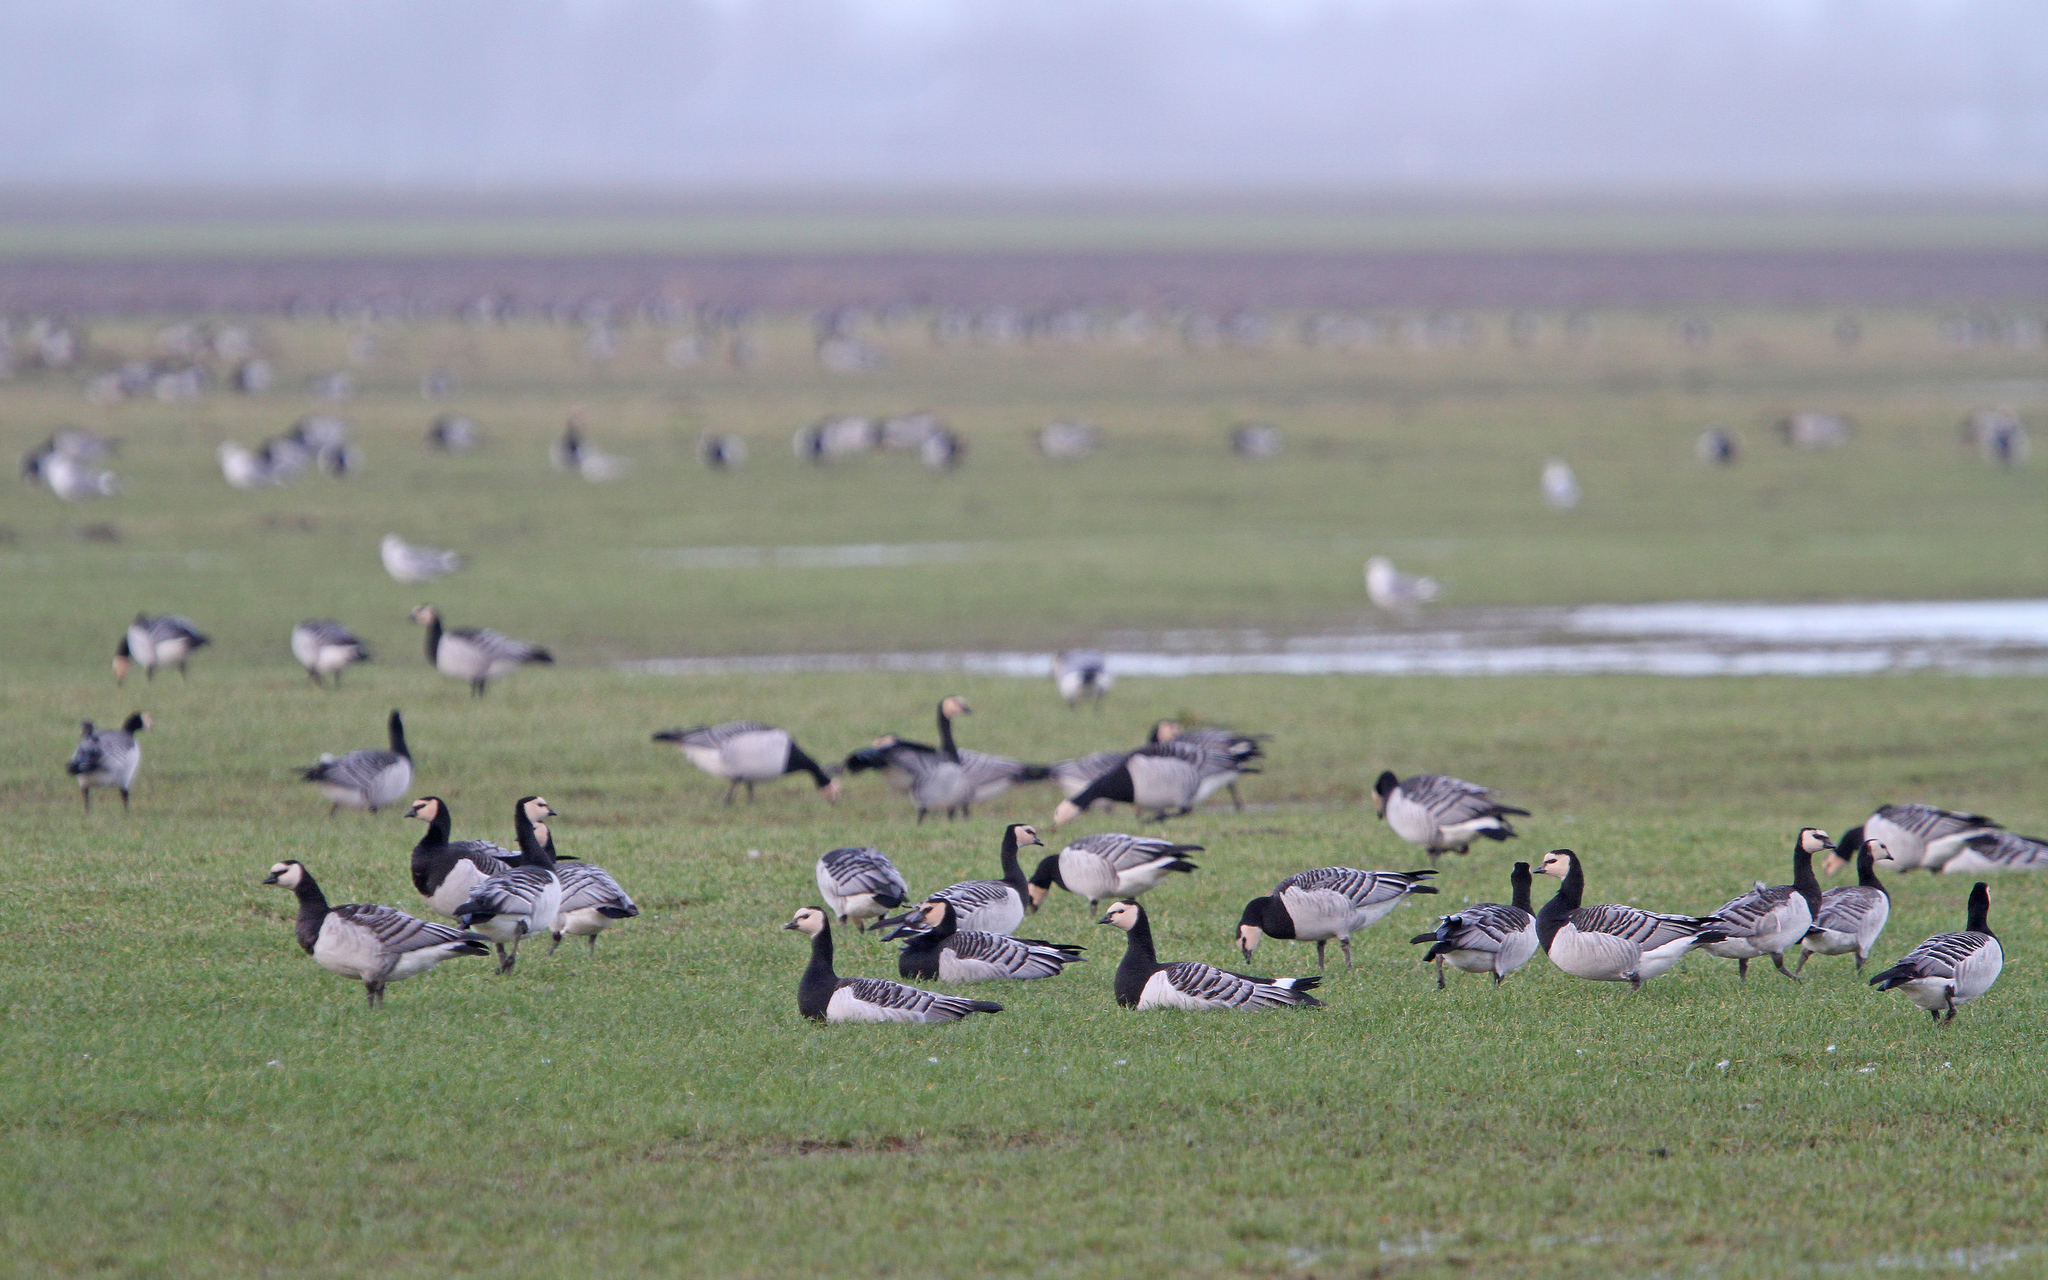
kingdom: Animalia
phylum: Chordata
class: Aves
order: Anseriformes
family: Anatidae
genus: Branta
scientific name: Branta leucopsis
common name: Barnacle goose
